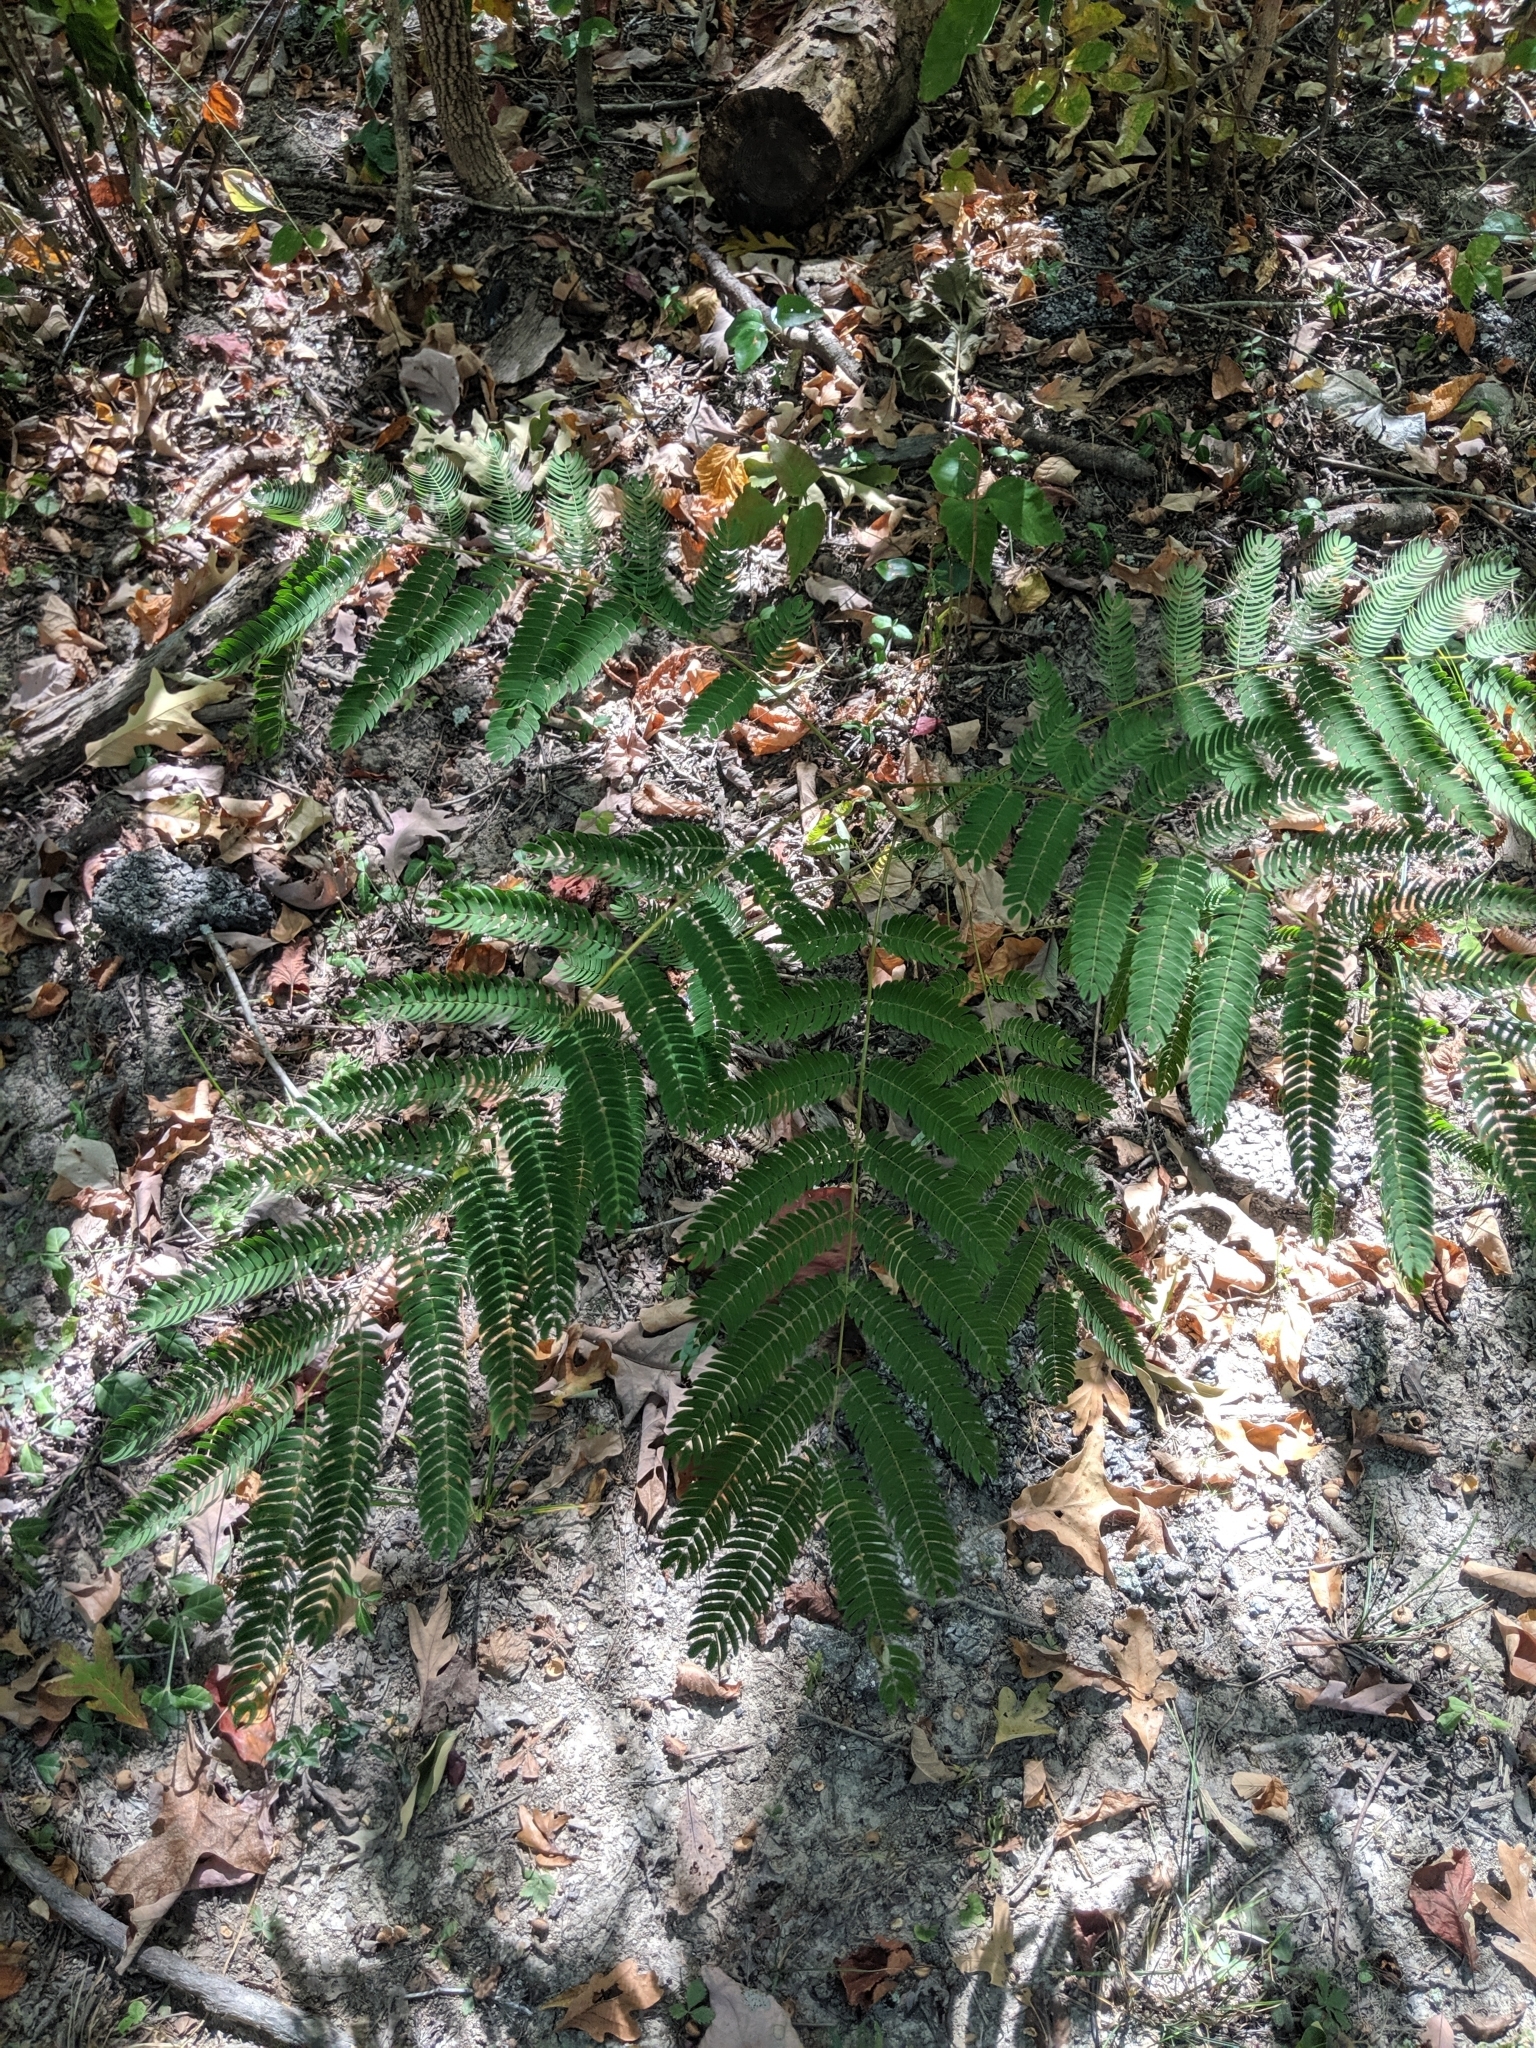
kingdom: Plantae
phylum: Tracheophyta
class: Magnoliopsida
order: Fabales
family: Fabaceae
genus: Albizia
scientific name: Albizia julibrissin
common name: Silktree
